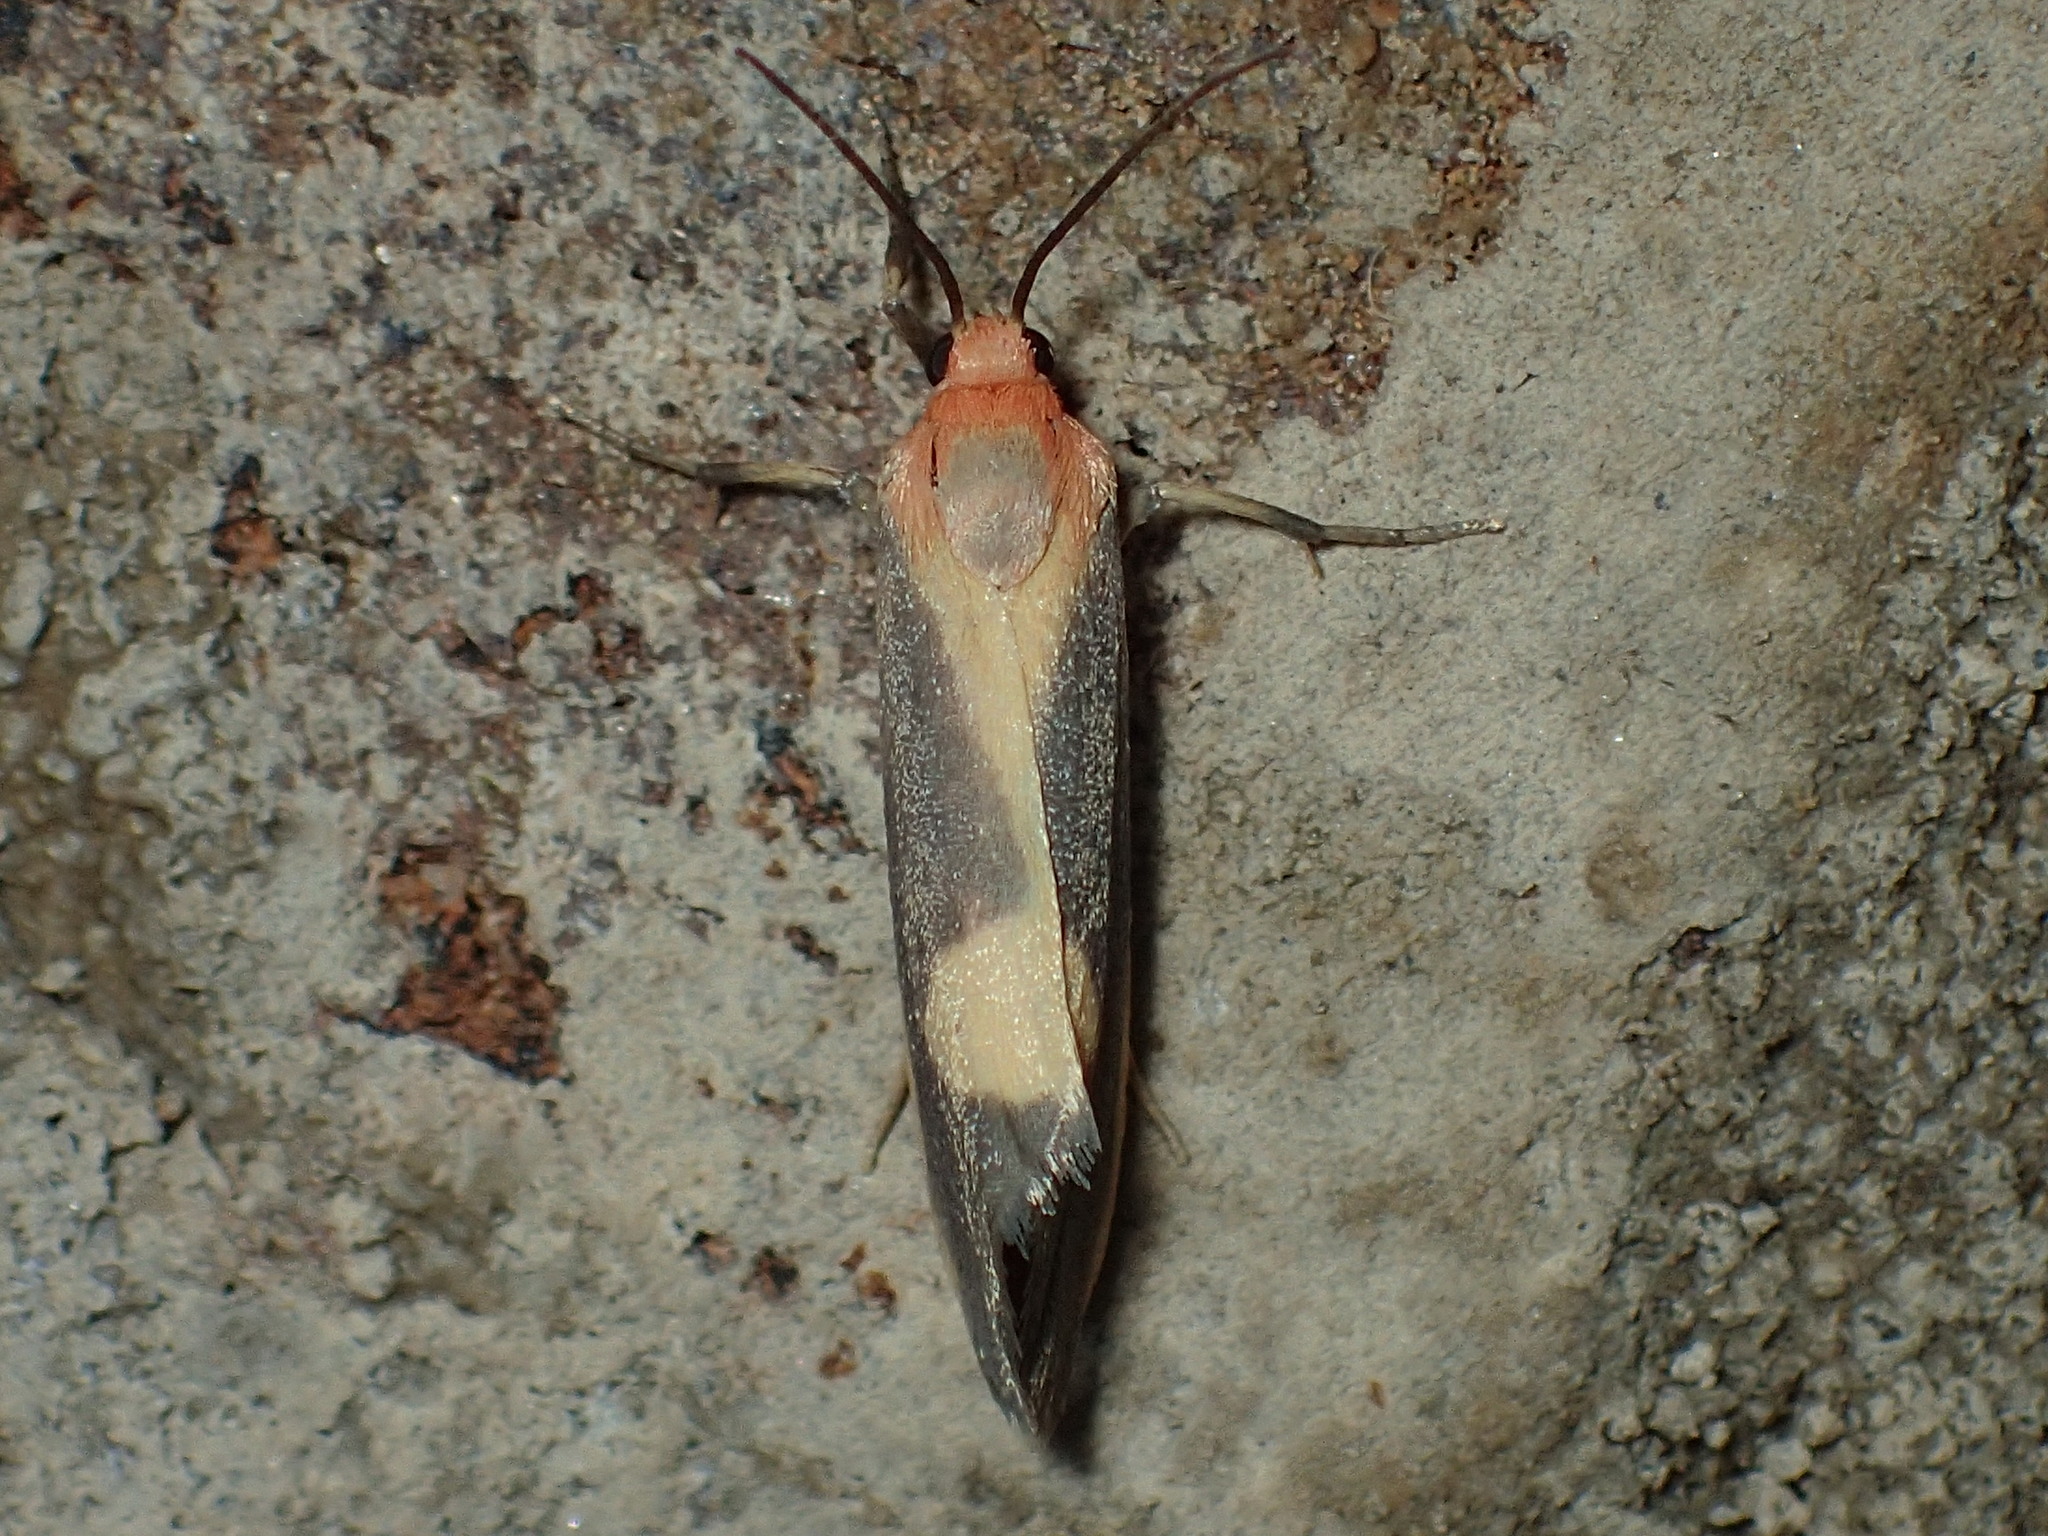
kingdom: Animalia
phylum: Arthropoda
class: Insecta
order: Lepidoptera
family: Erebidae
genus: Cisthene
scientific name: Cisthene plumbea
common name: Lead colored lichen moth
